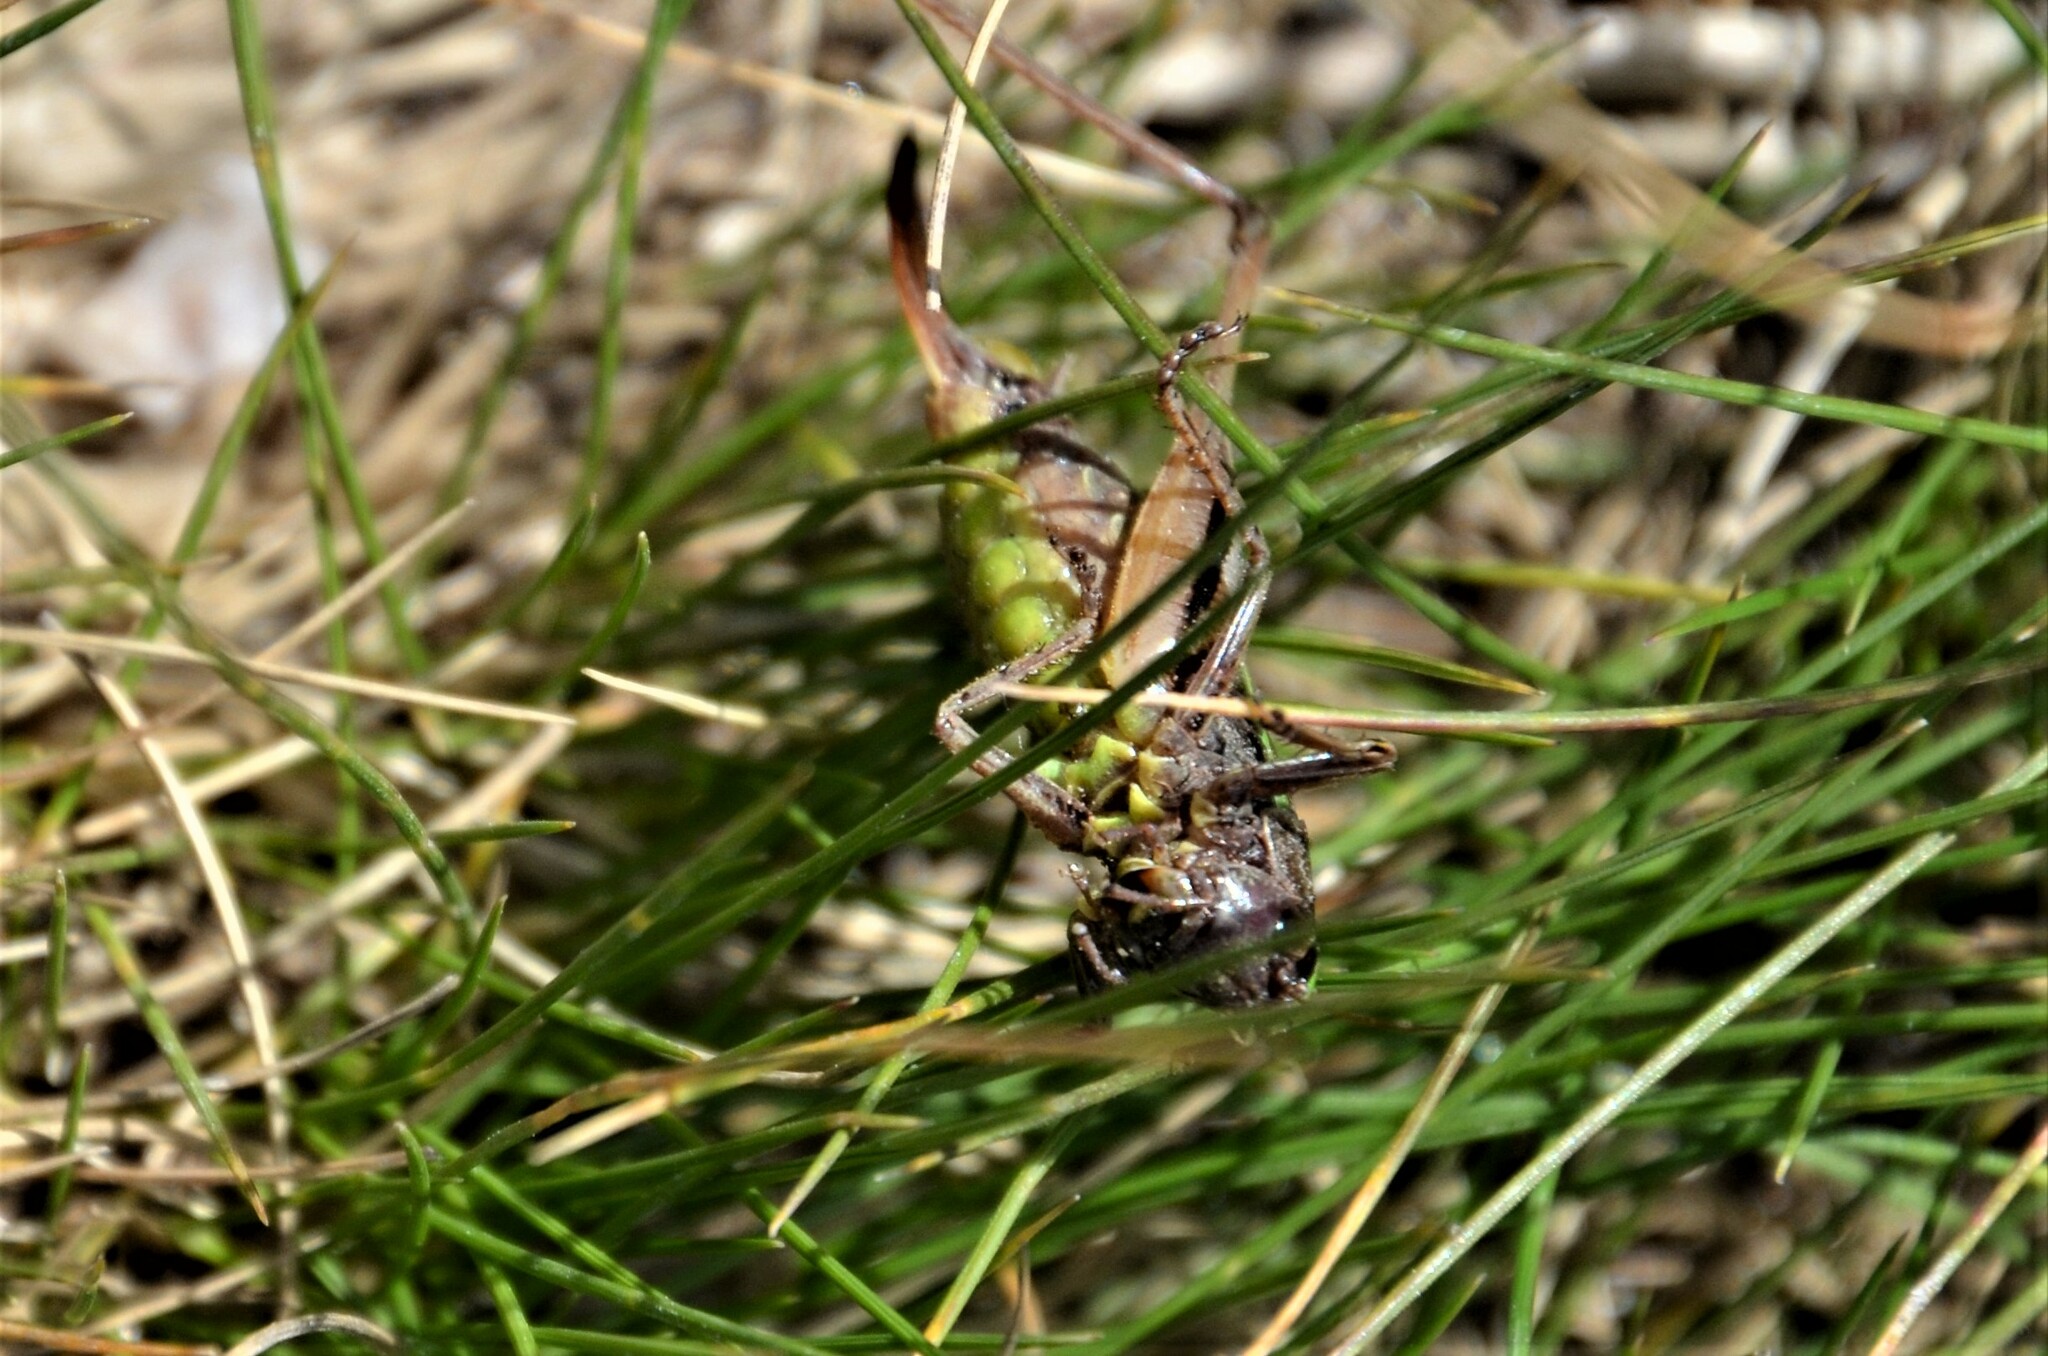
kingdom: Animalia
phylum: Arthropoda
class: Insecta
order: Orthoptera
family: Tettigoniidae
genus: Metrioptera
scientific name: Metrioptera brachyptera
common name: Bog bush-cricket
